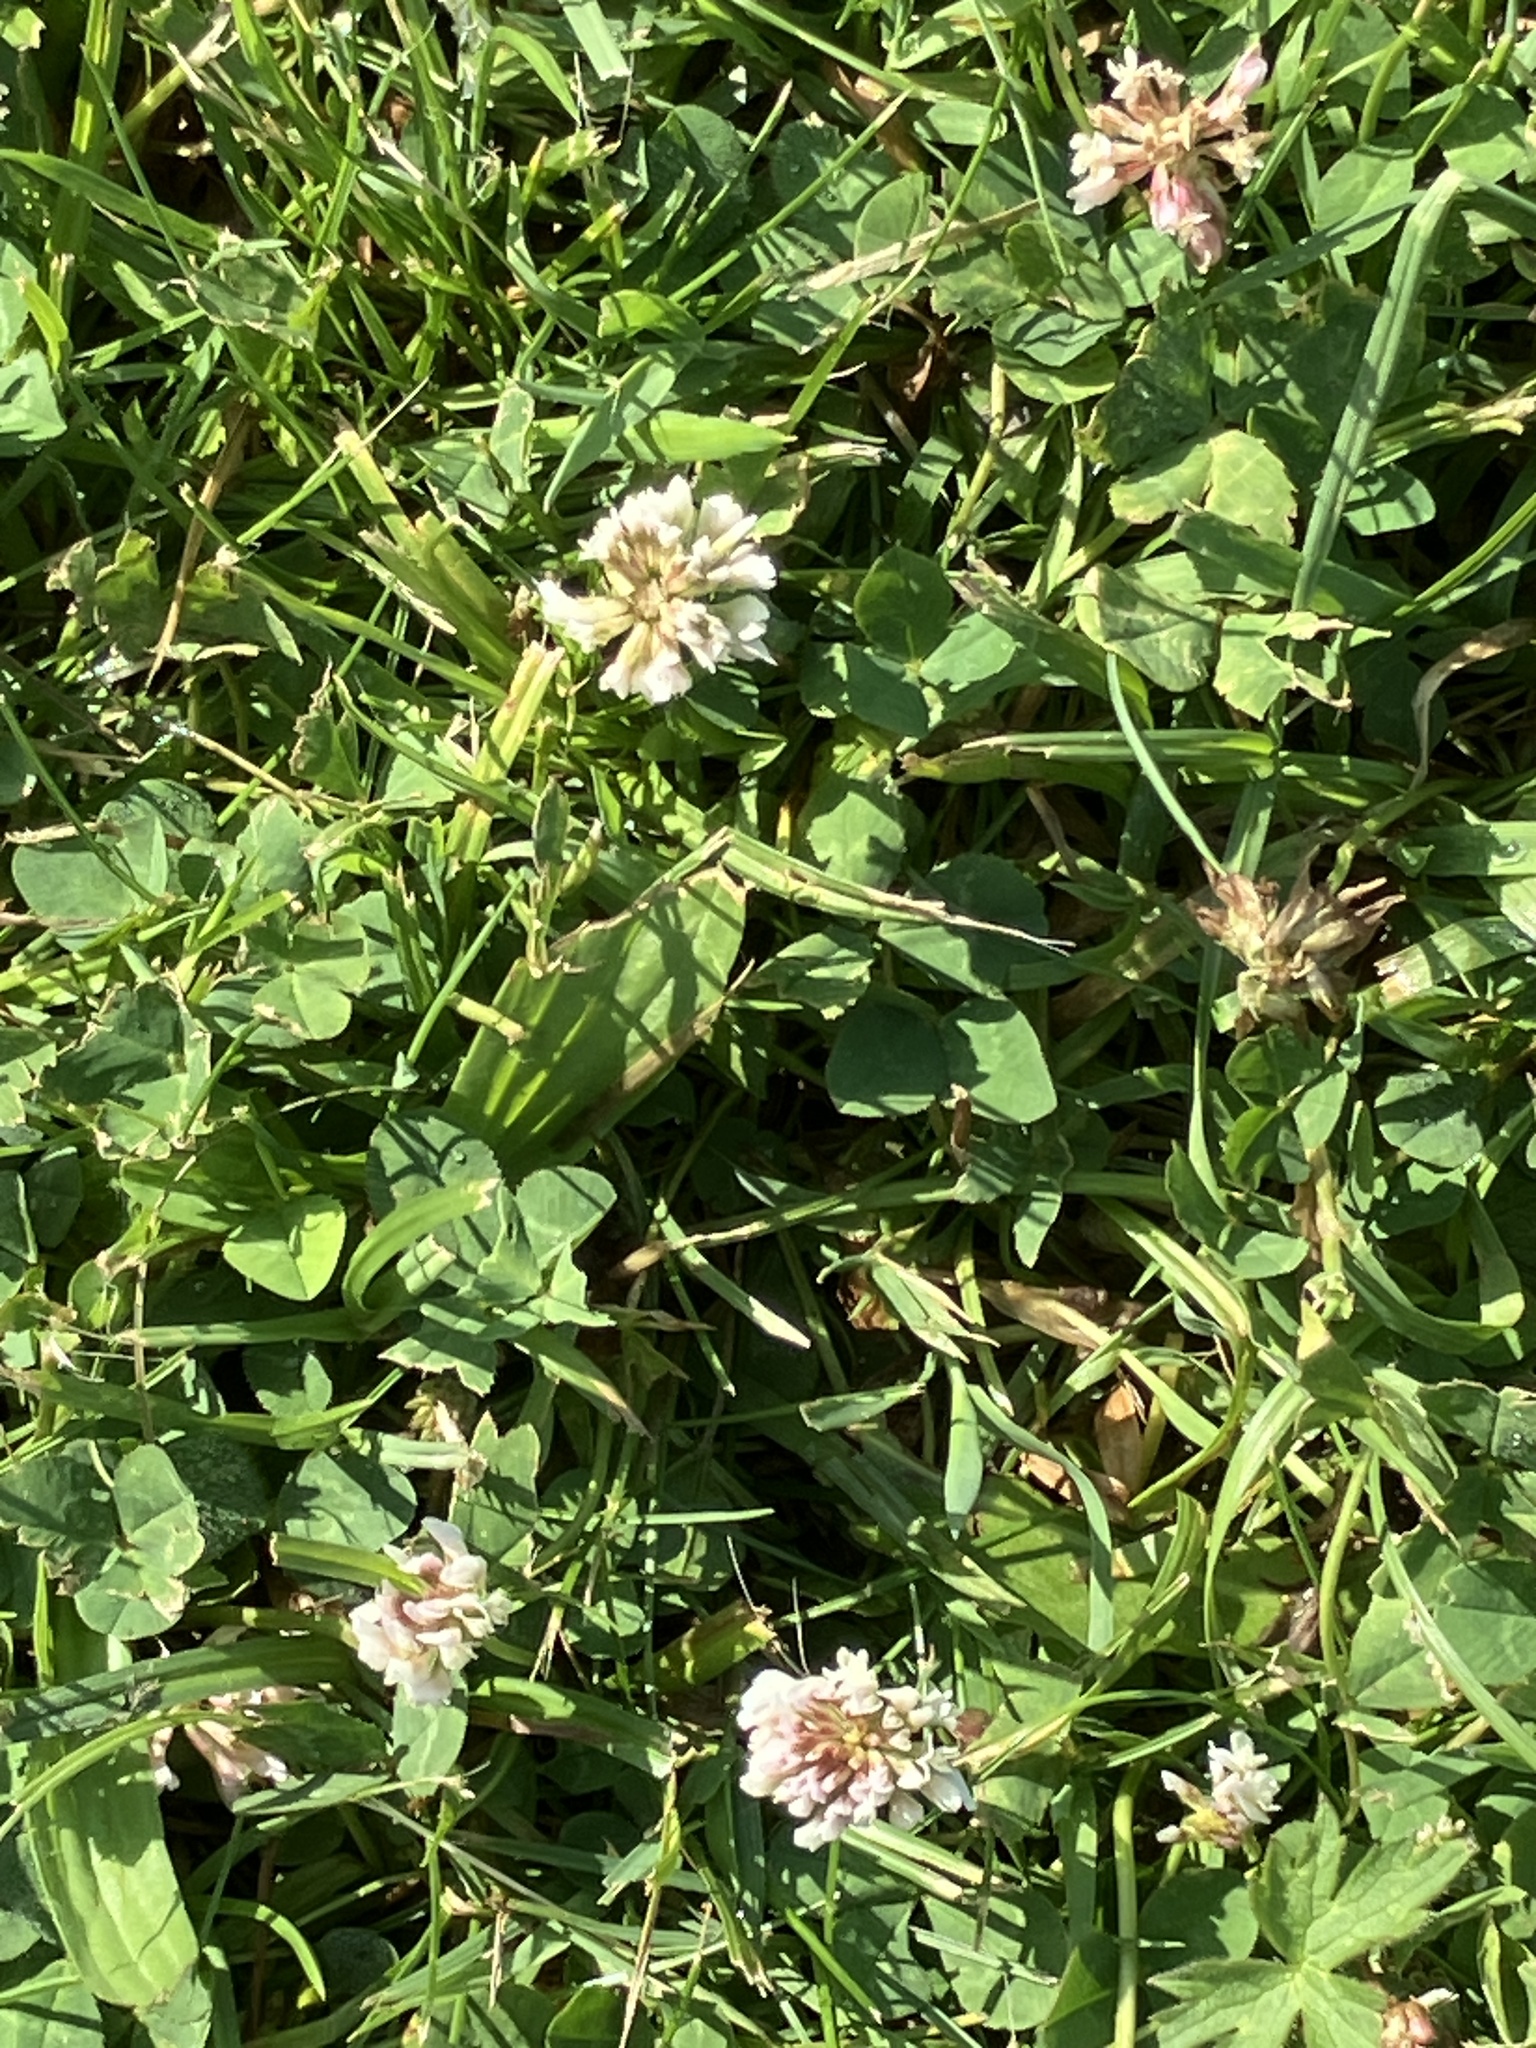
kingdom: Plantae
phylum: Tracheophyta
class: Magnoliopsida
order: Fabales
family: Fabaceae
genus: Trifolium
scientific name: Trifolium repens
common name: White clover
